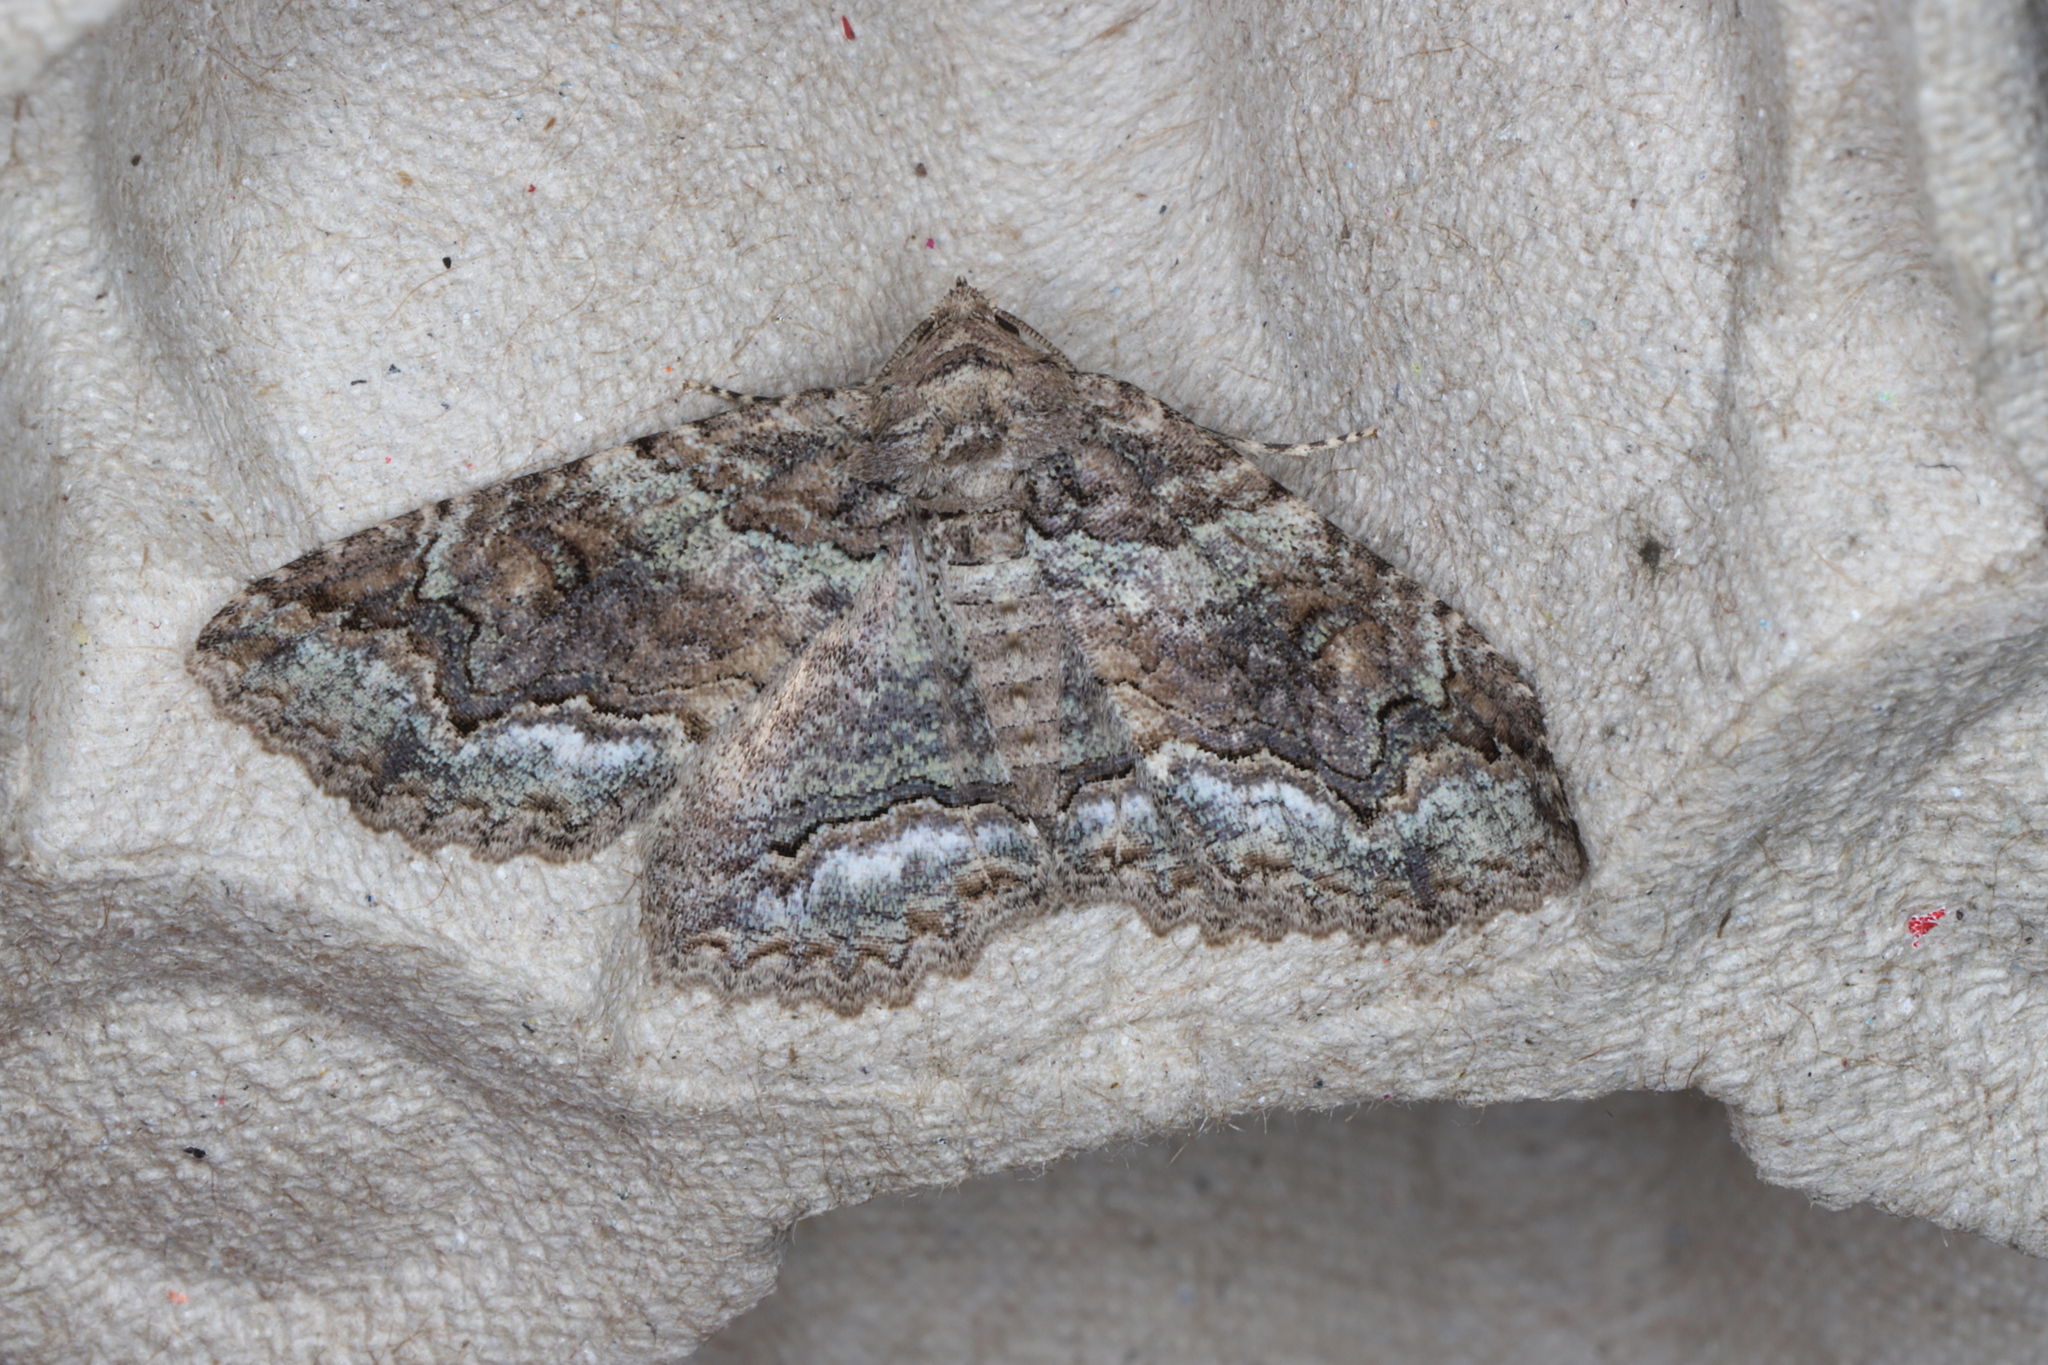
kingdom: Animalia
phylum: Arthropoda
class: Insecta
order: Lepidoptera
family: Erebidae
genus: Zale
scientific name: Zale galbanata
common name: Maple zale
